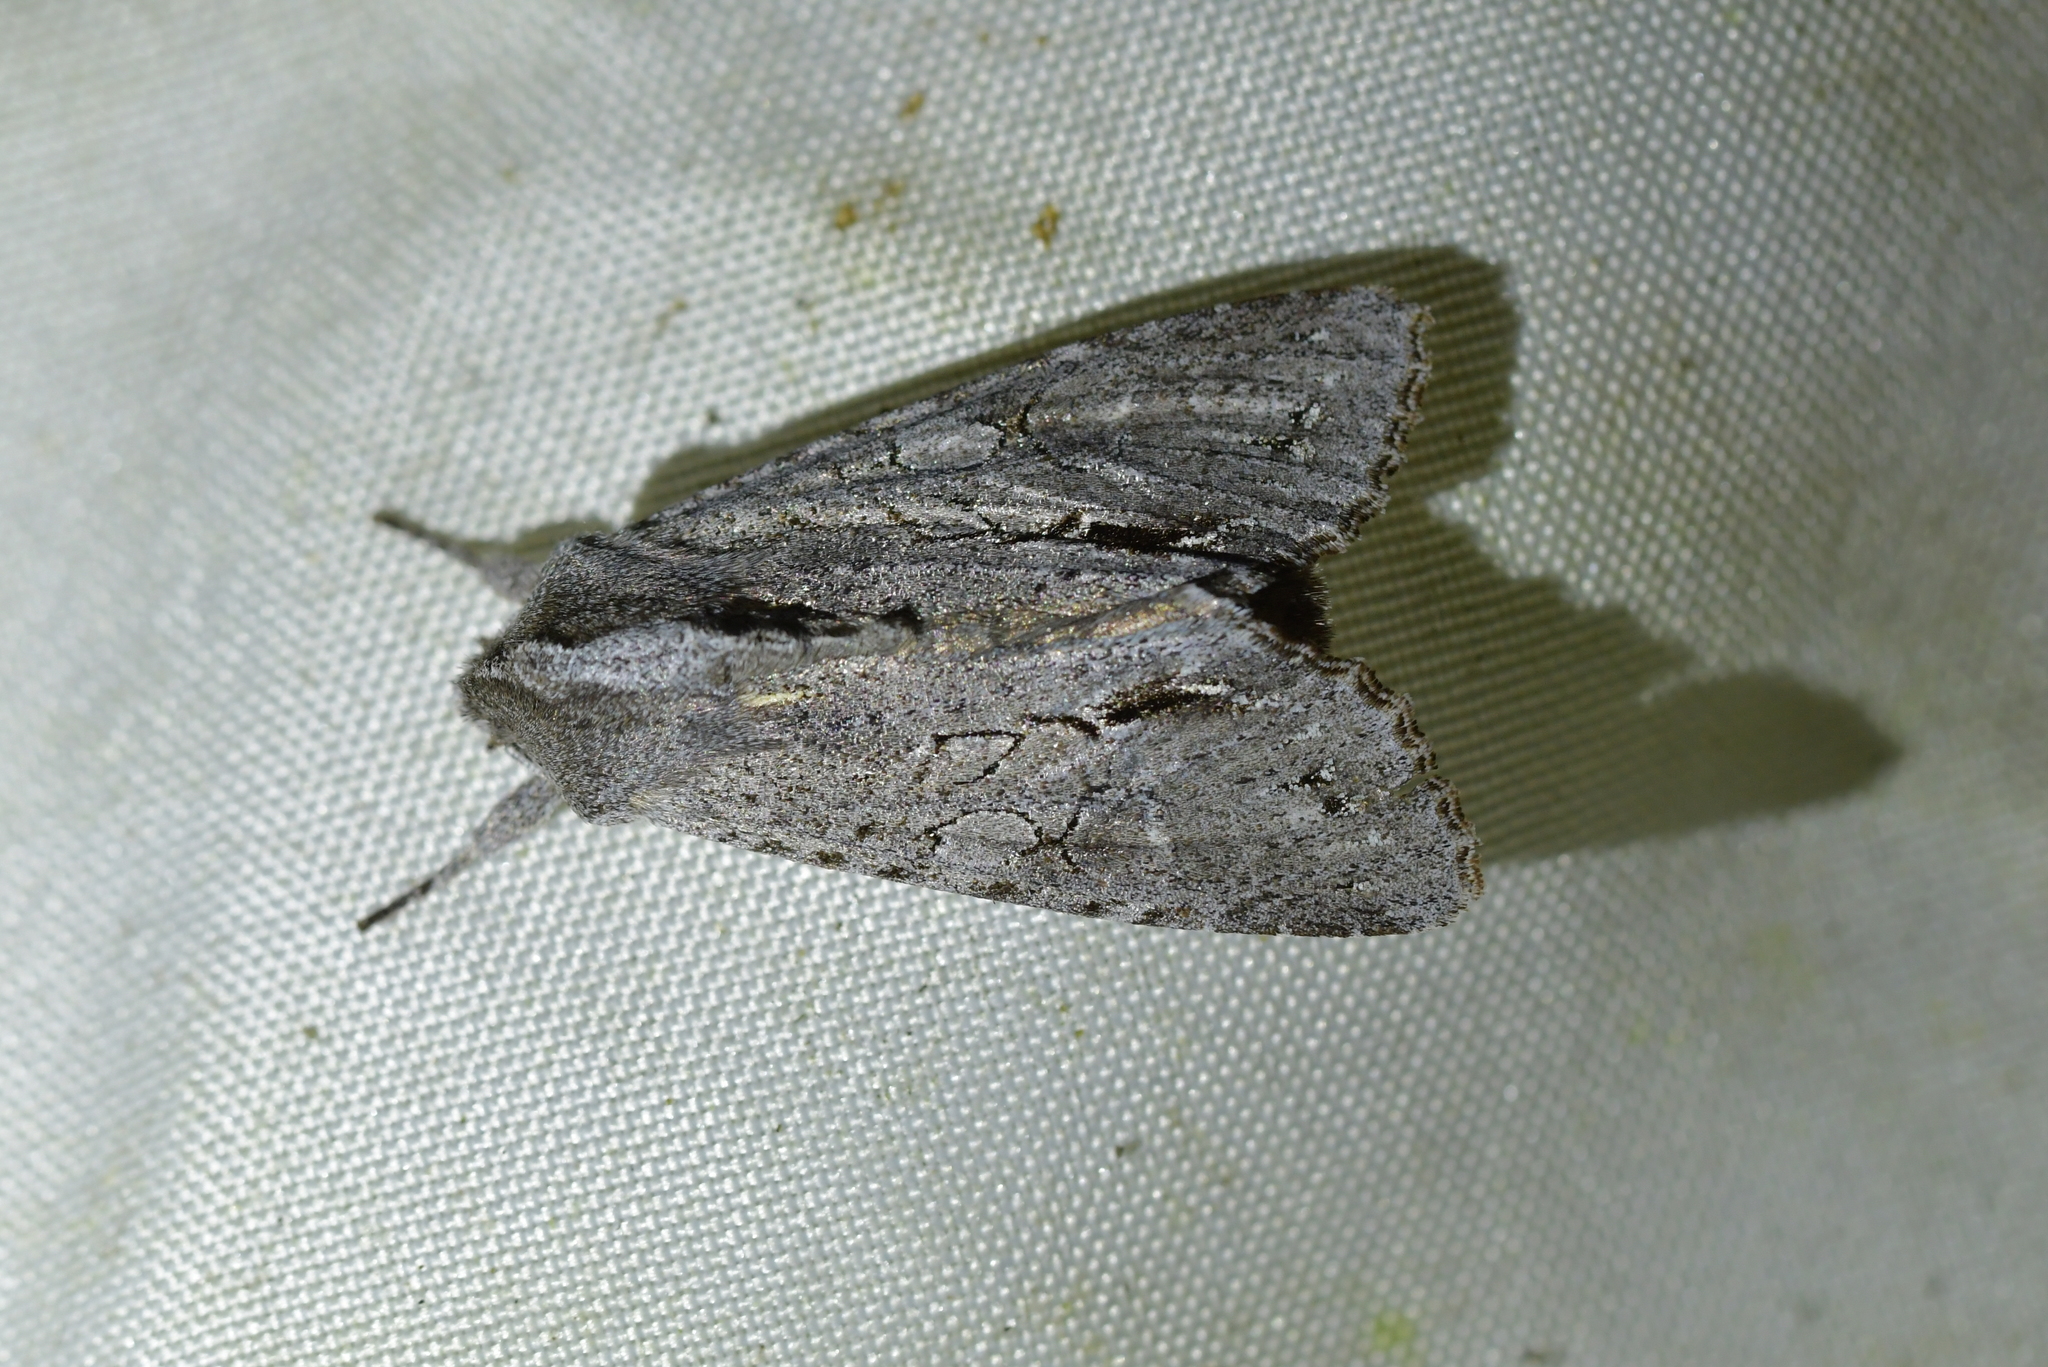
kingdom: Animalia
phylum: Arthropoda
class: Insecta
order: Lepidoptera
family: Noctuidae
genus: Ichneutica
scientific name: Ichneutica
